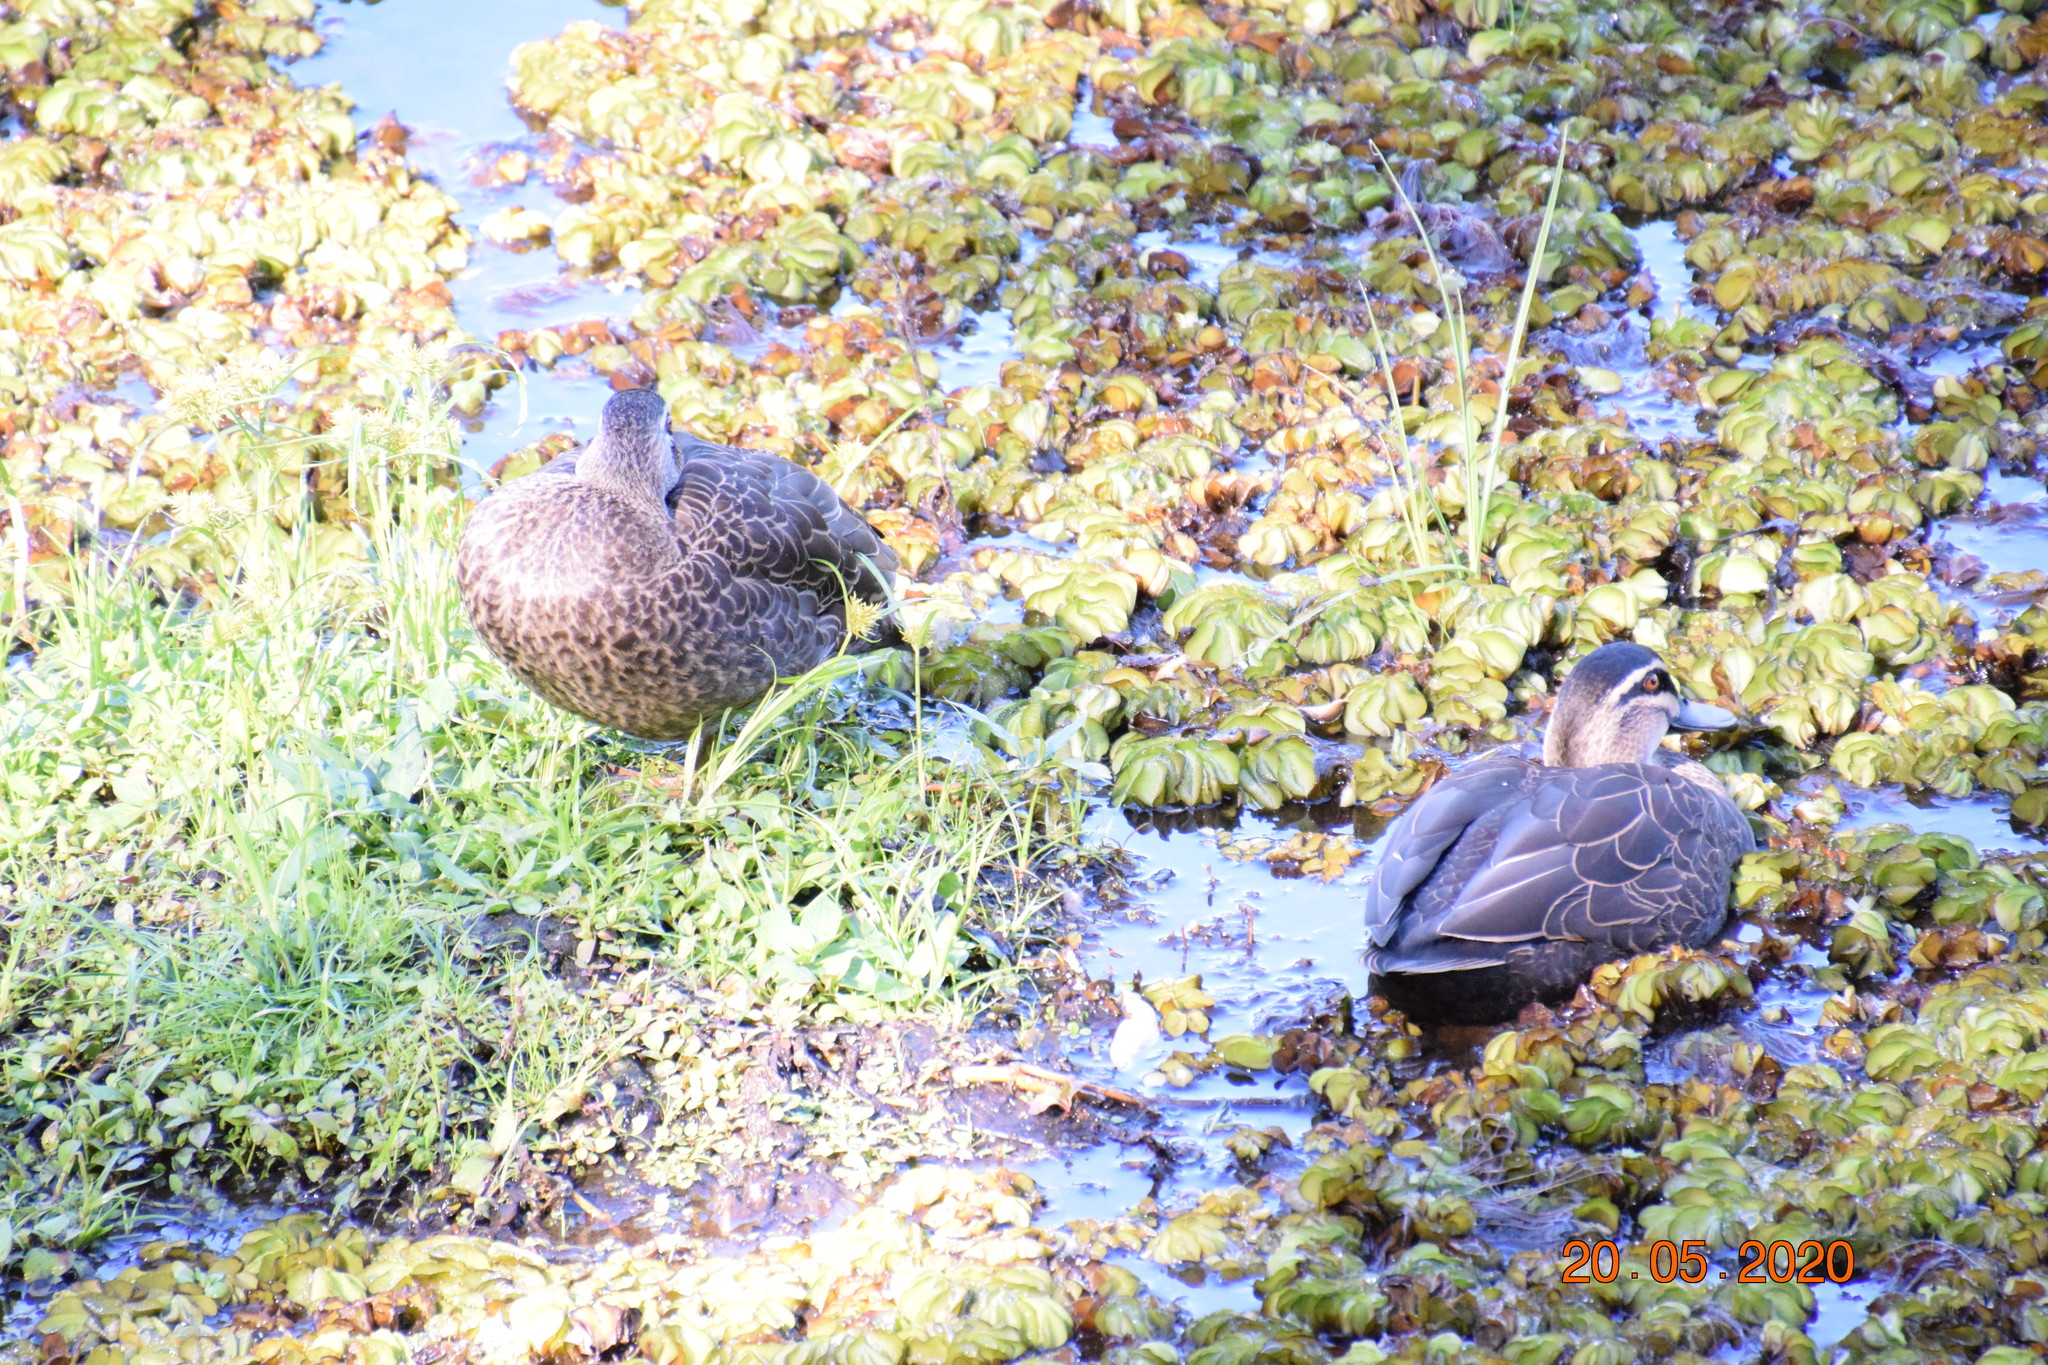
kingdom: Animalia
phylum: Chordata
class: Aves
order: Anseriformes
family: Anatidae
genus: Anas
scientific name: Anas superciliosa
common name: Pacific black duck
